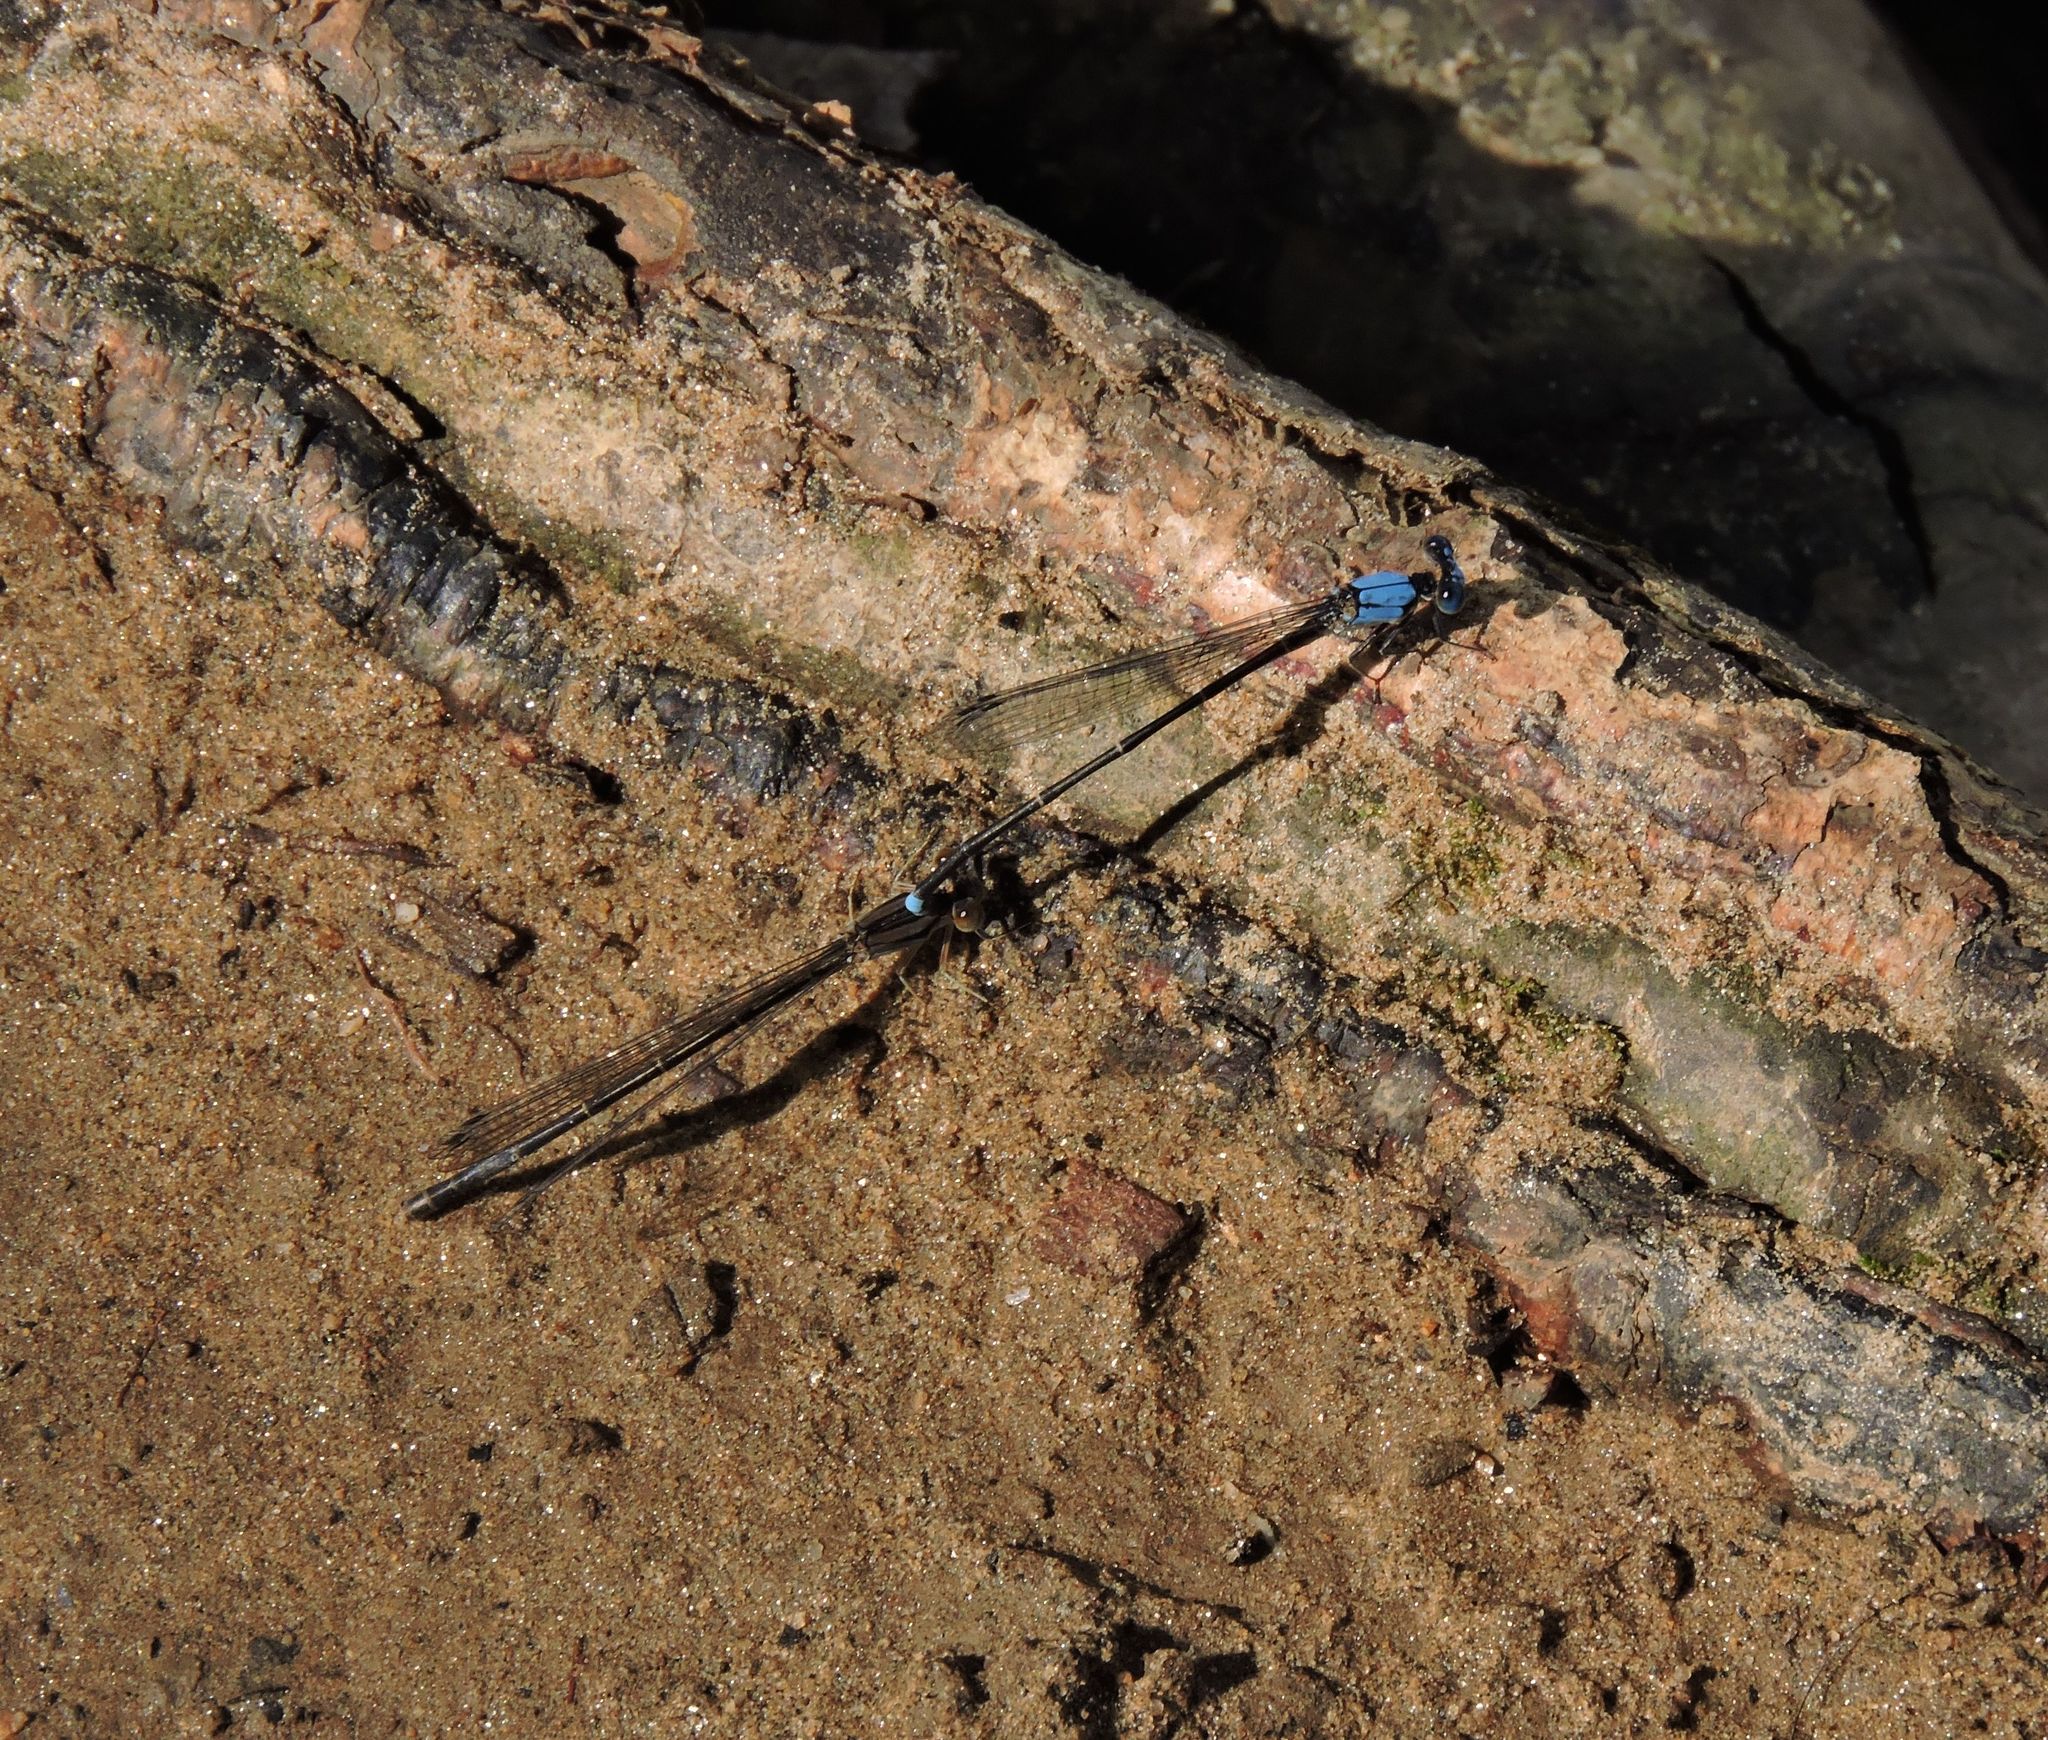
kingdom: Animalia
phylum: Arthropoda
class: Insecta
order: Odonata
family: Coenagrionidae
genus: Argia
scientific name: Argia apicalis
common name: Blue-fronted dancer
